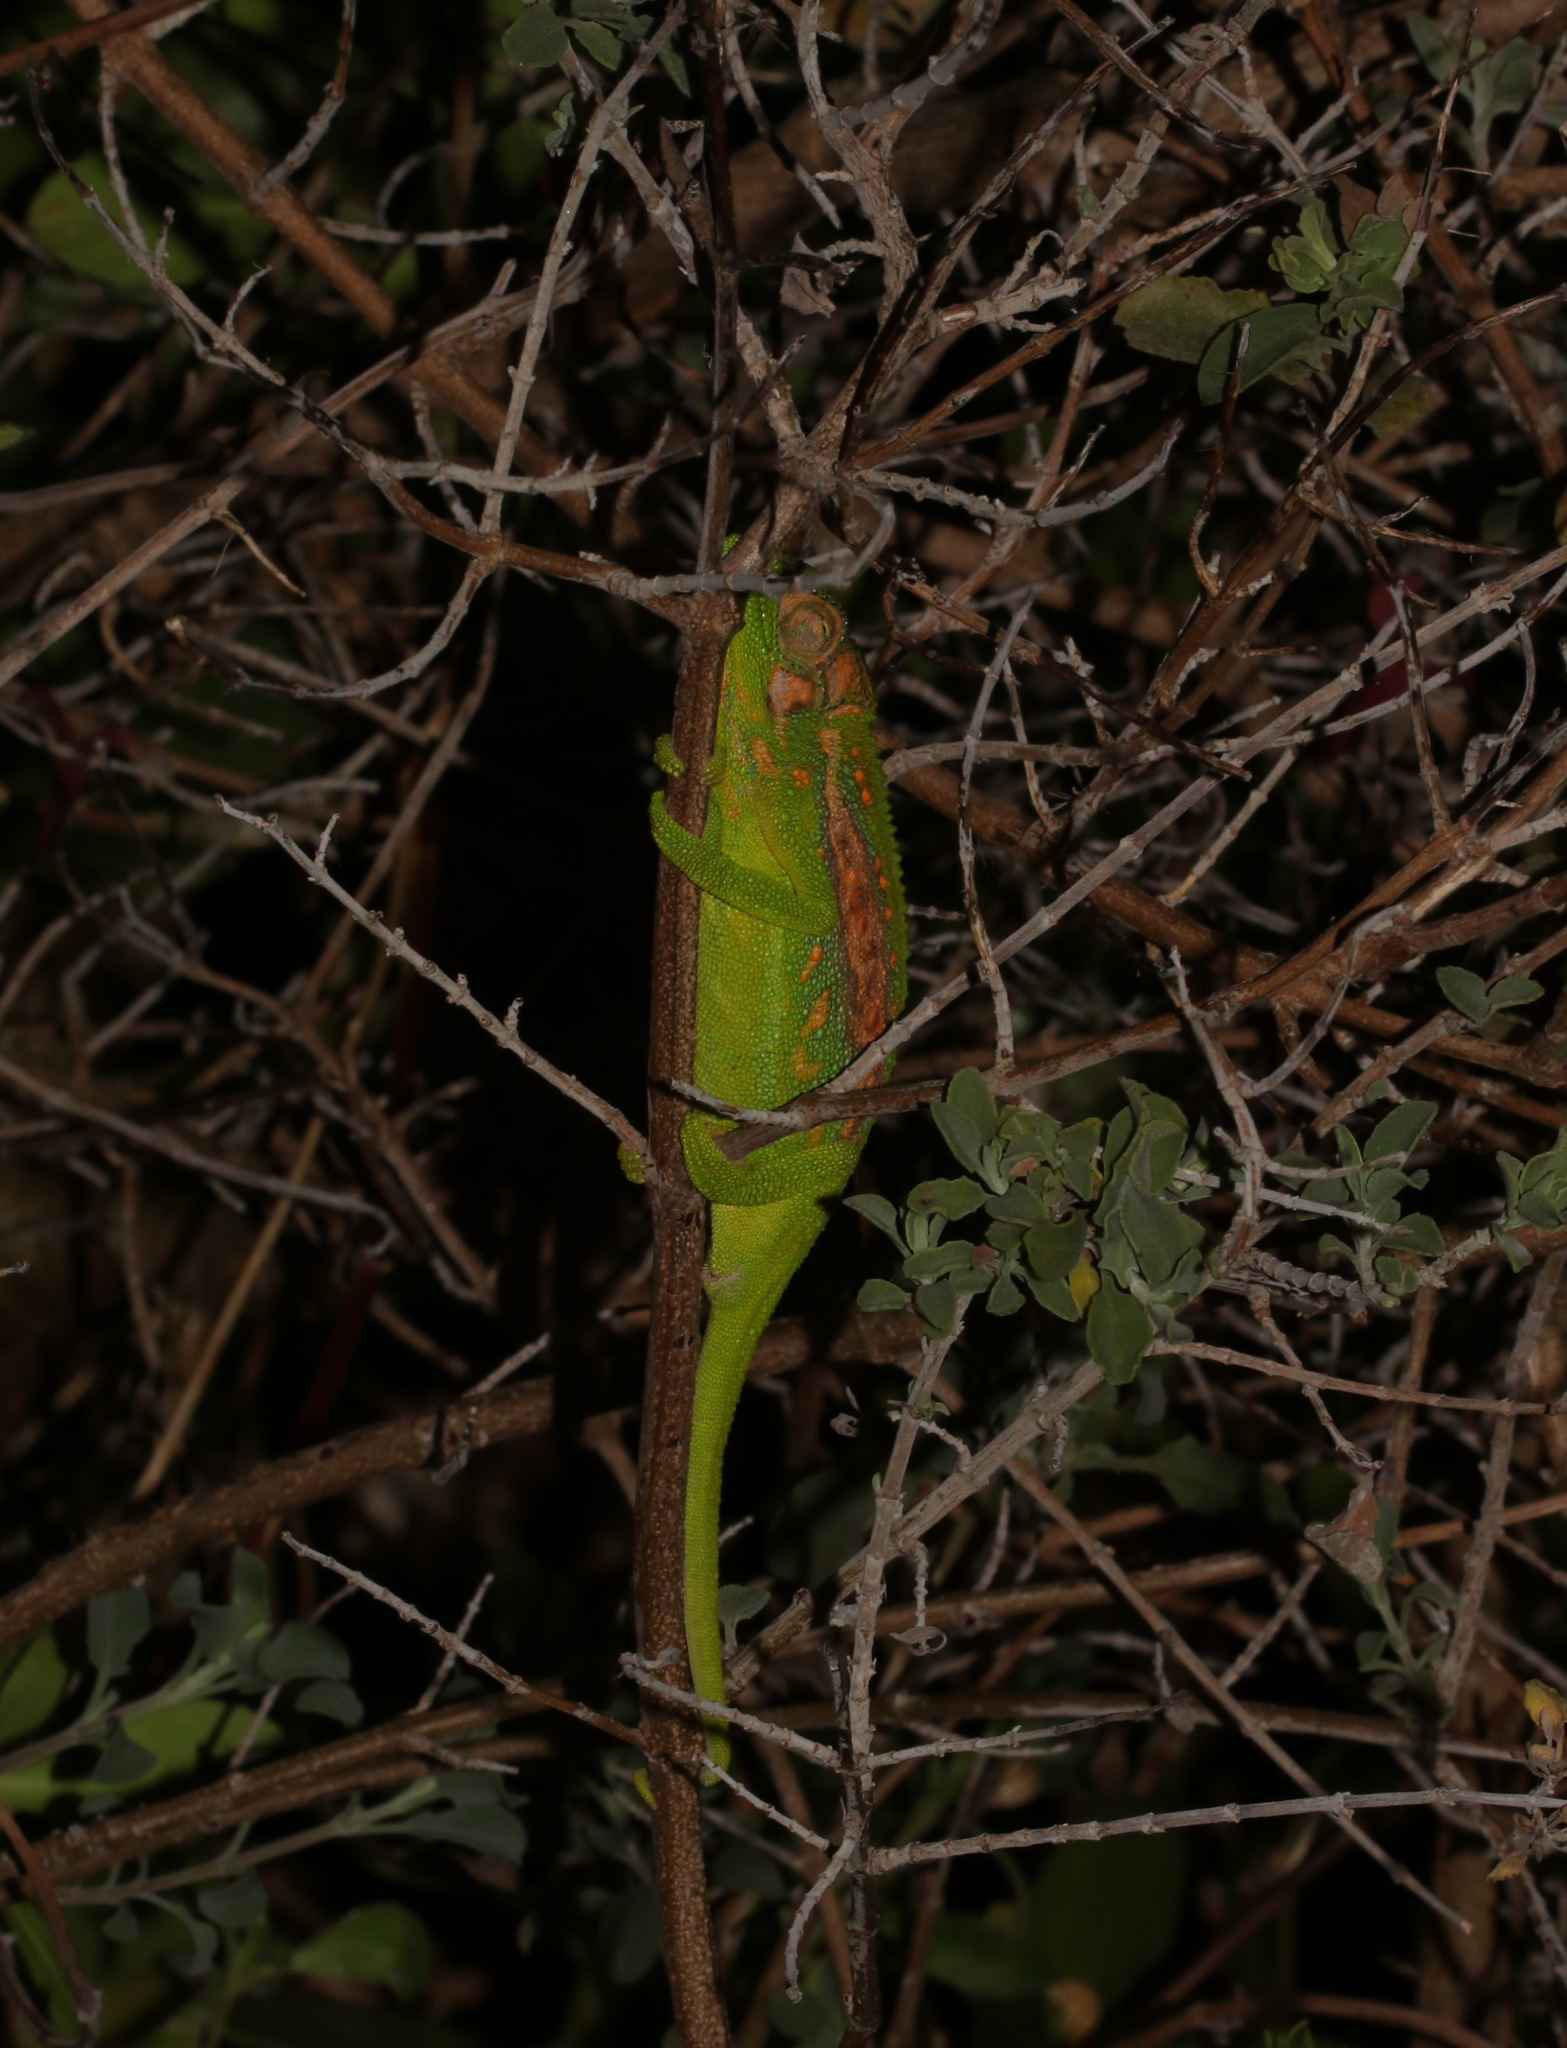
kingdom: Animalia
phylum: Chordata
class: Squamata
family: Chamaeleonidae
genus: Bradypodion
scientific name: Bradypodion pumilum
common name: Cape dwarf chameleon
